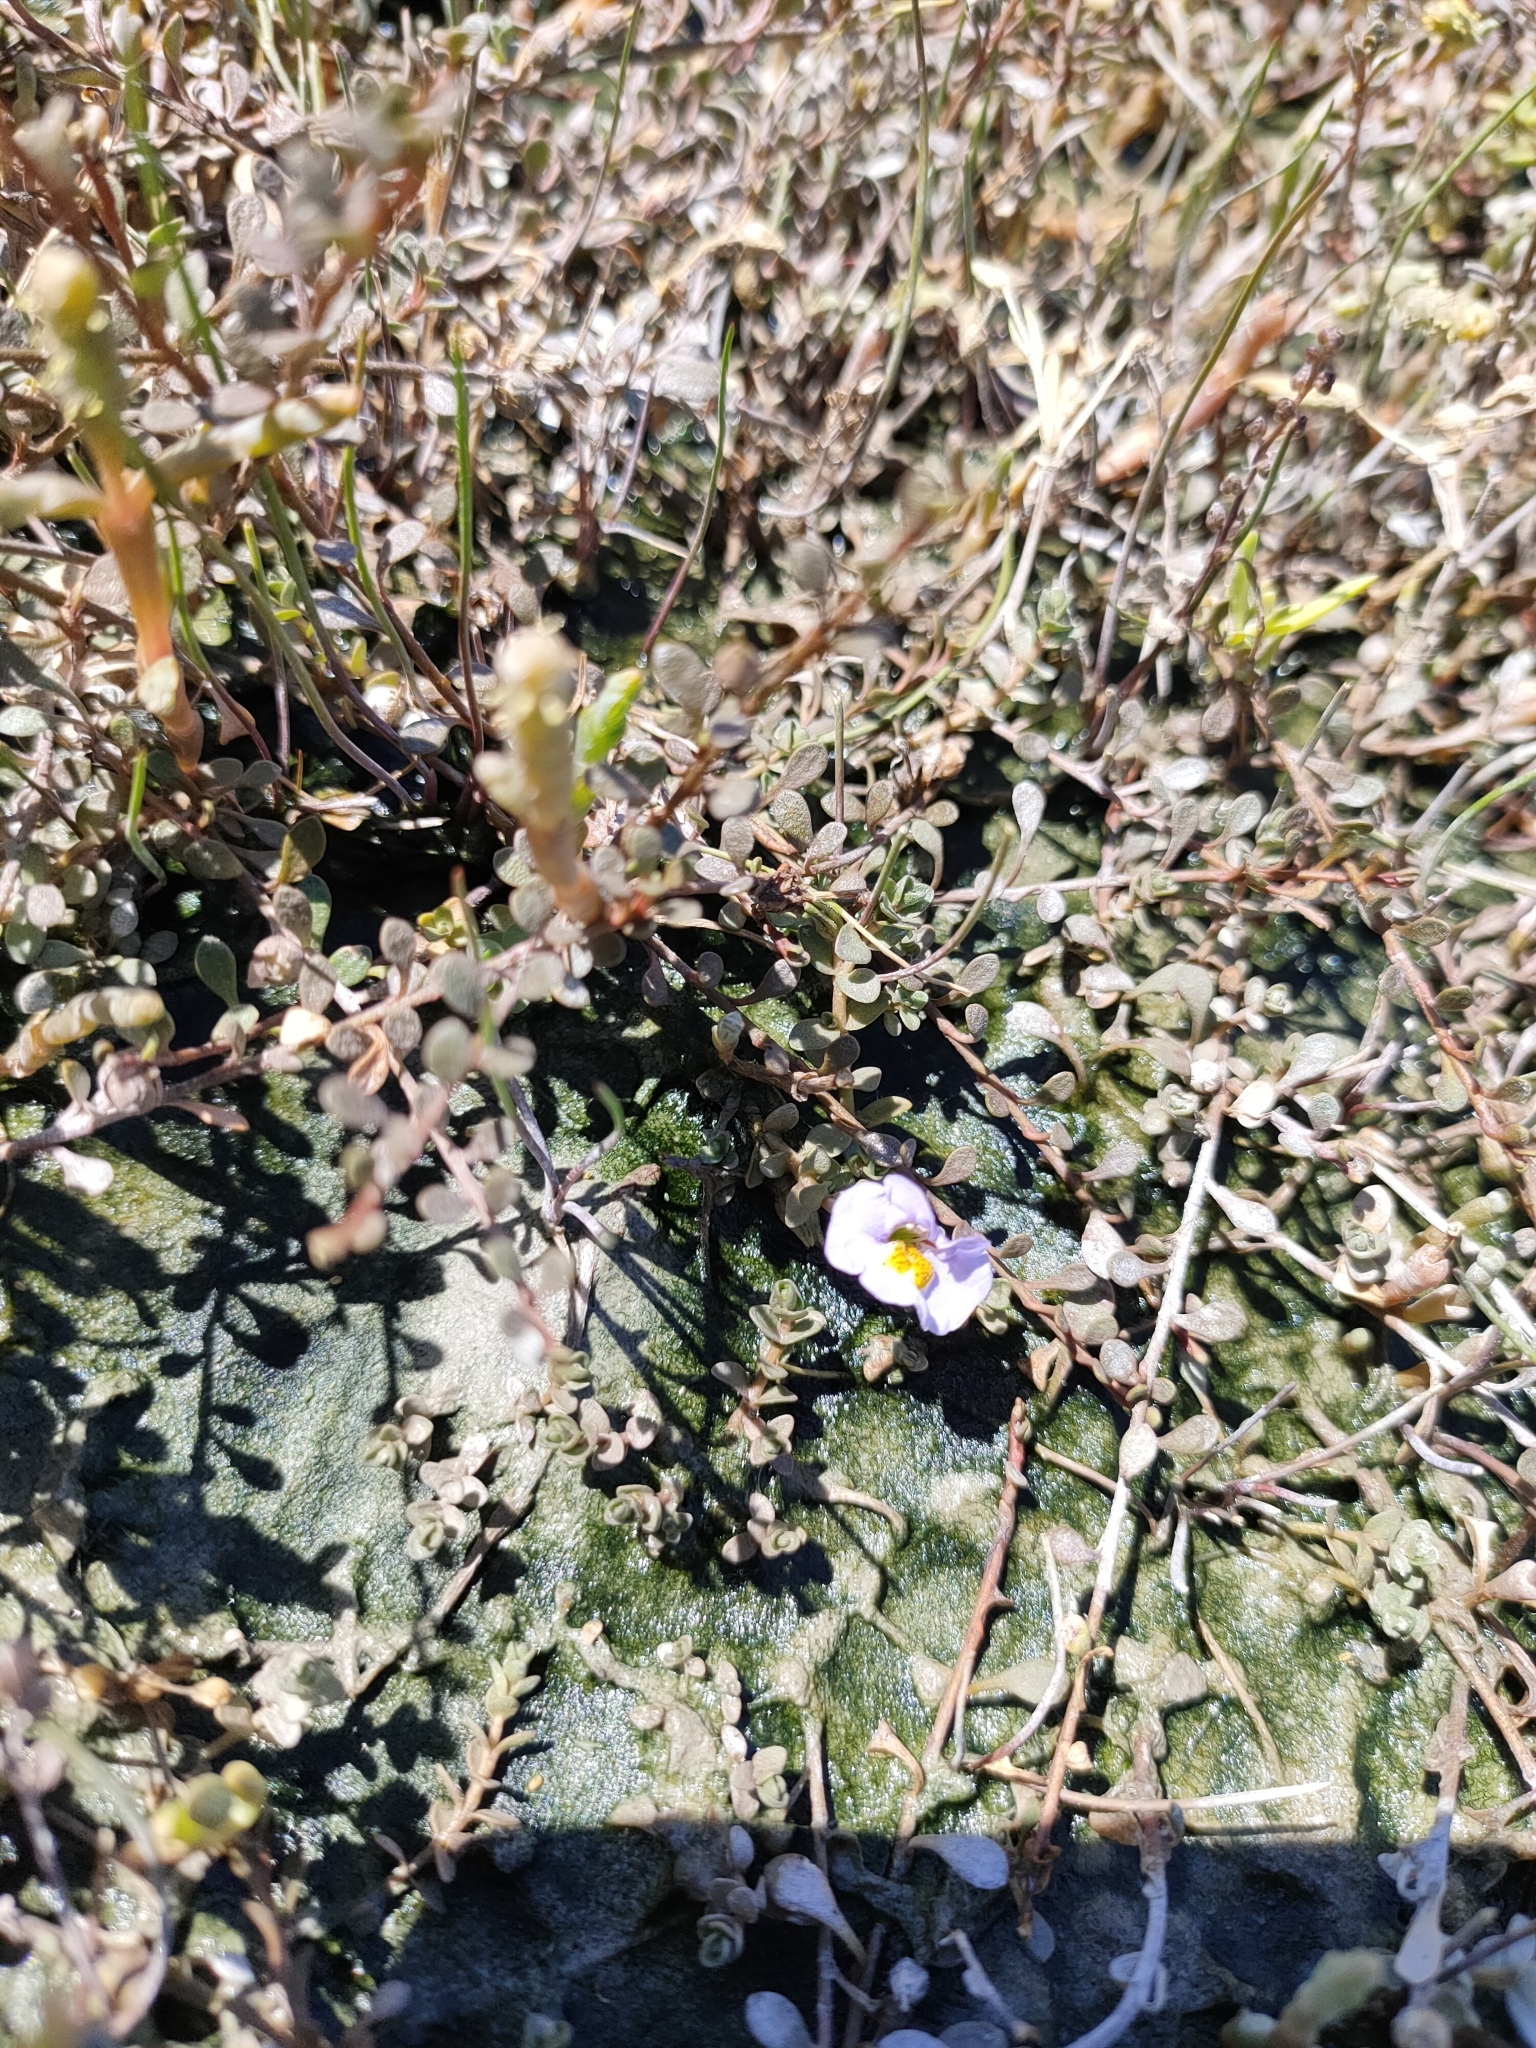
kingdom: Plantae
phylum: Tracheophyta
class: Magnoliopsida
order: Lamiales
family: Phrymaceae
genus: Thyridia
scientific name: Thyridia repens
